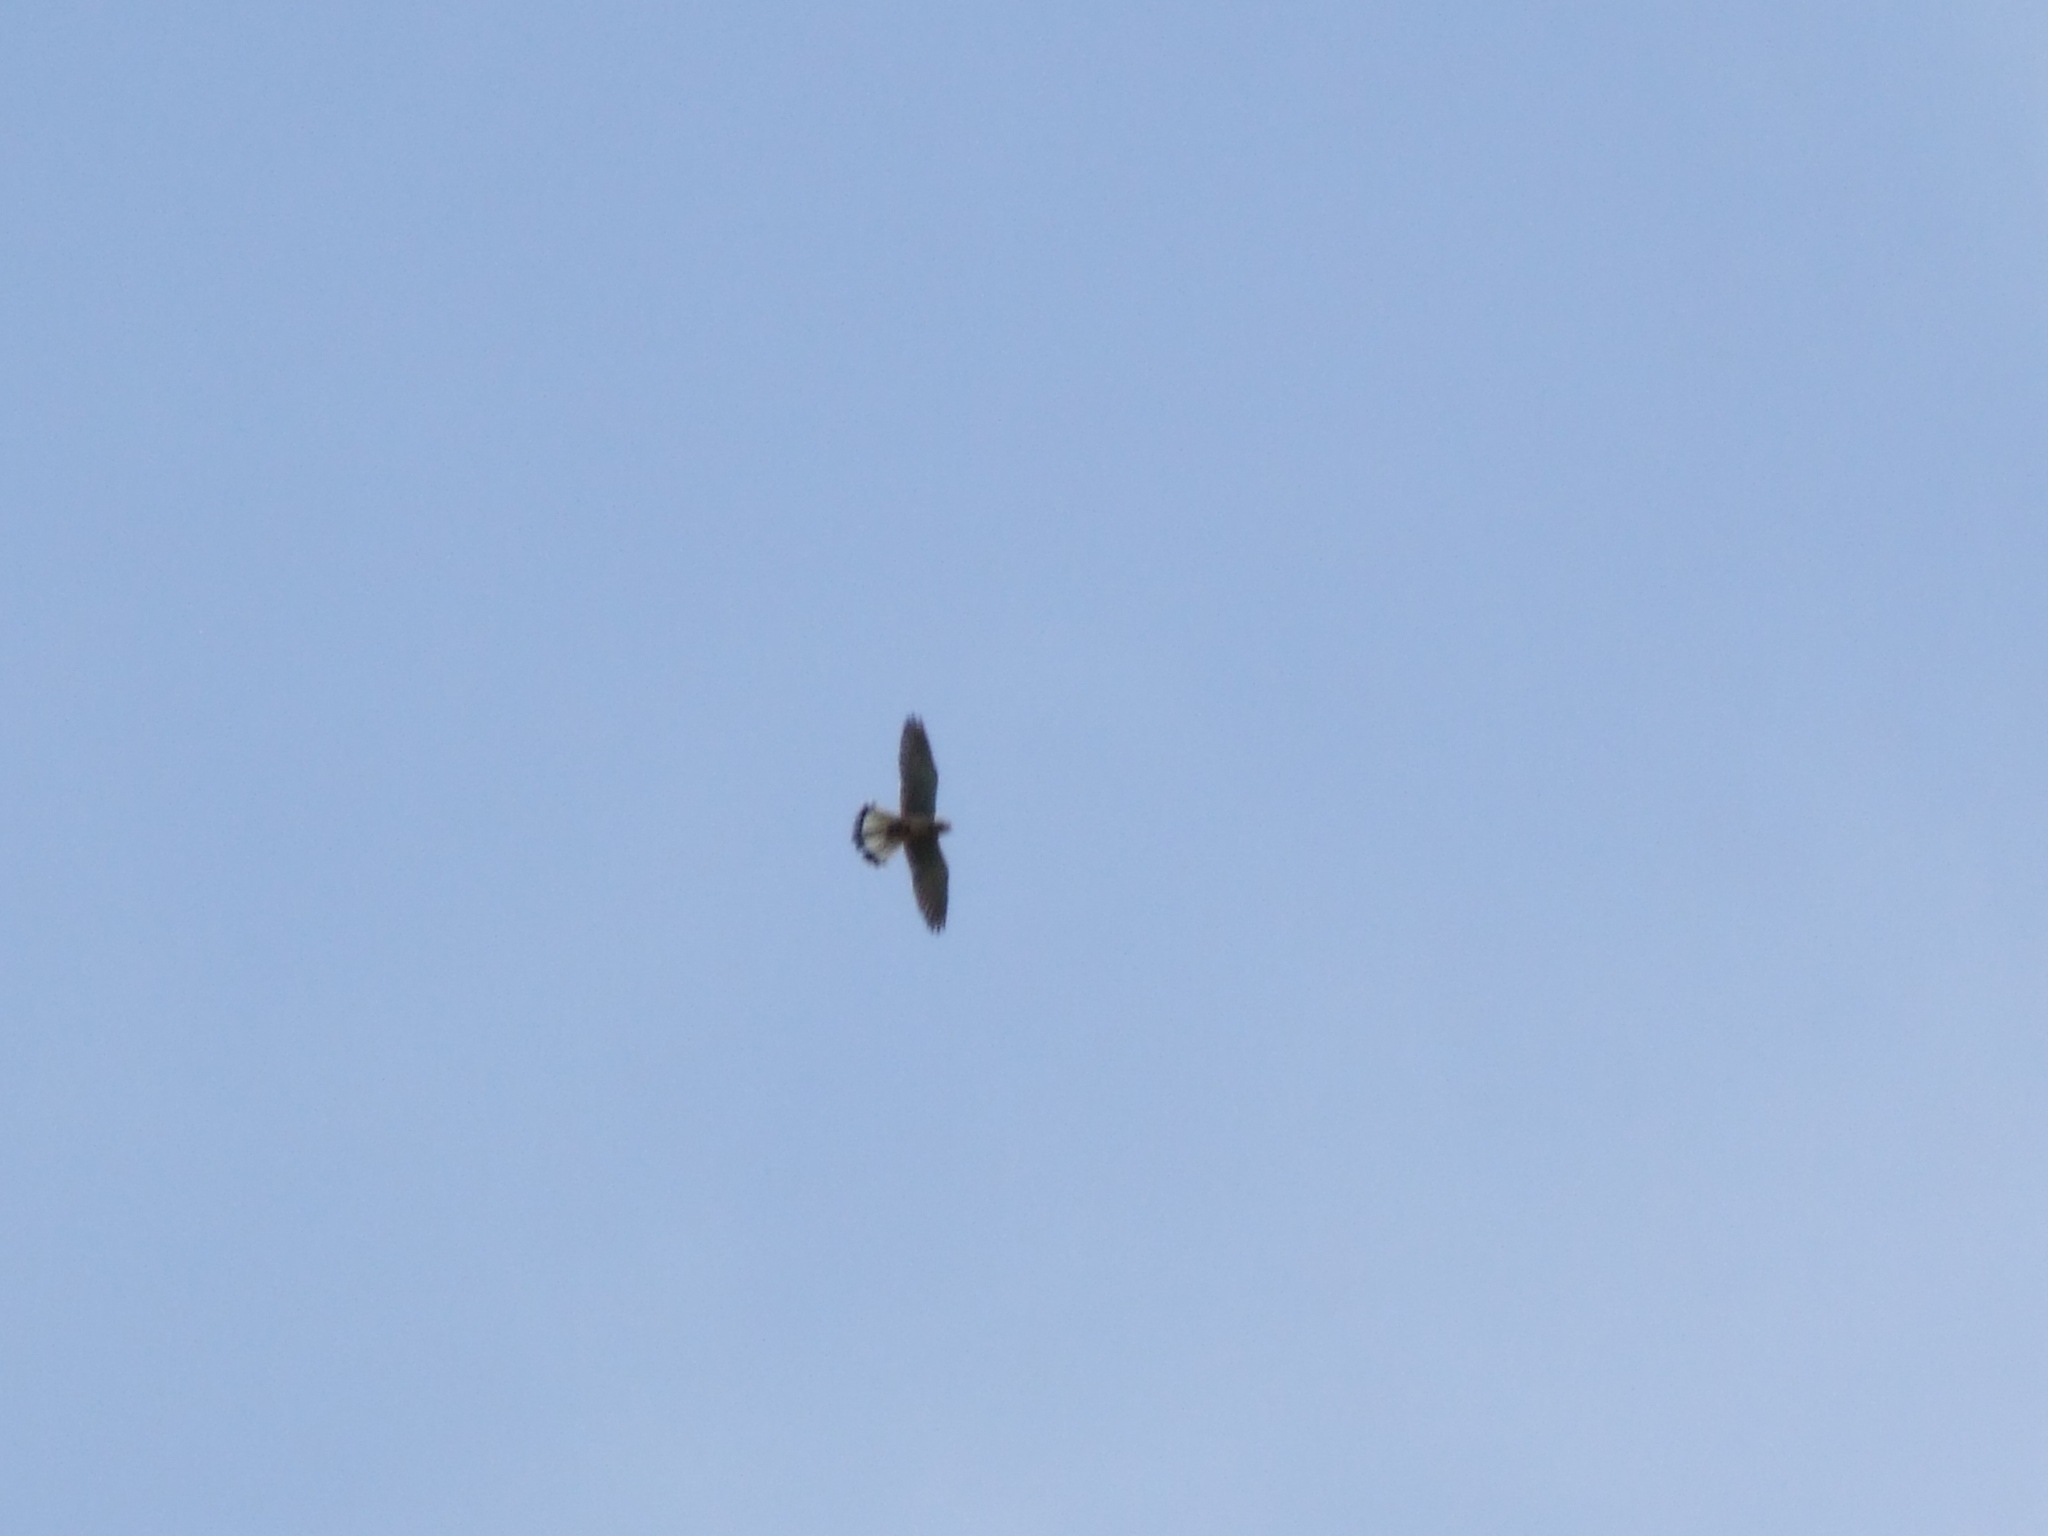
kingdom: Animalia
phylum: Chordata
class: Aves
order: Falconiformes
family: Falconidae
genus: Falco
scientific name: Falco tinnunculus
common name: Common kestrel
